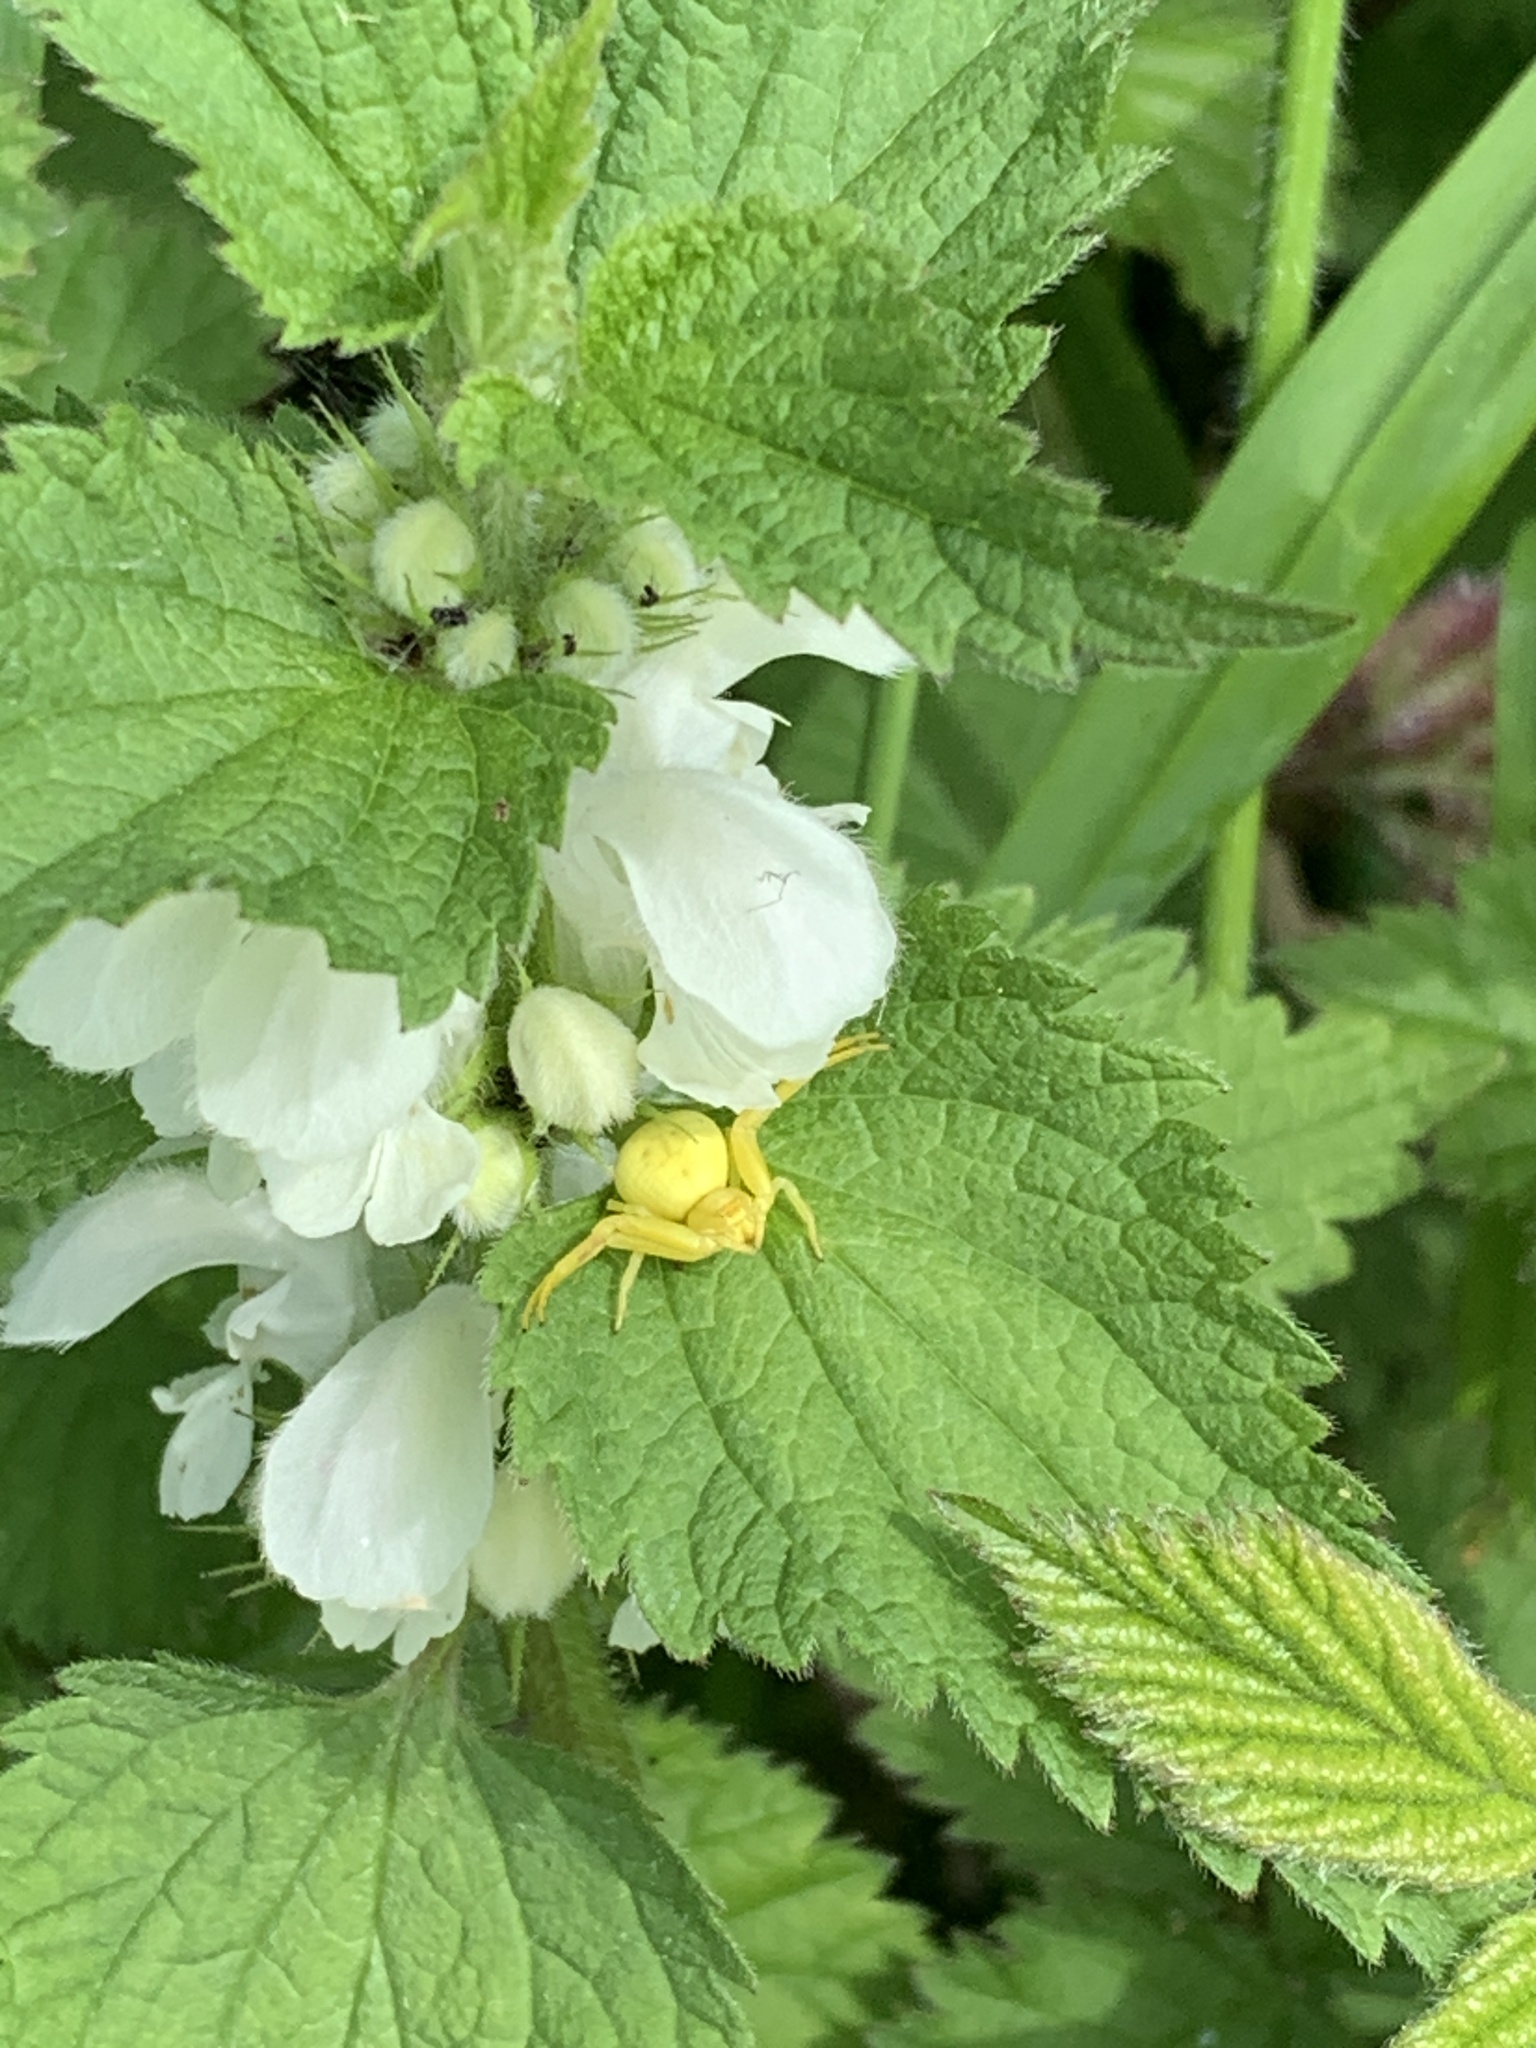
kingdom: Animalia
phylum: Arthropoda
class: Arachnida
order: Araneae
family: Thomisidae
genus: Misumena
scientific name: Misumena vatia
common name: Goldenrod crab spider
